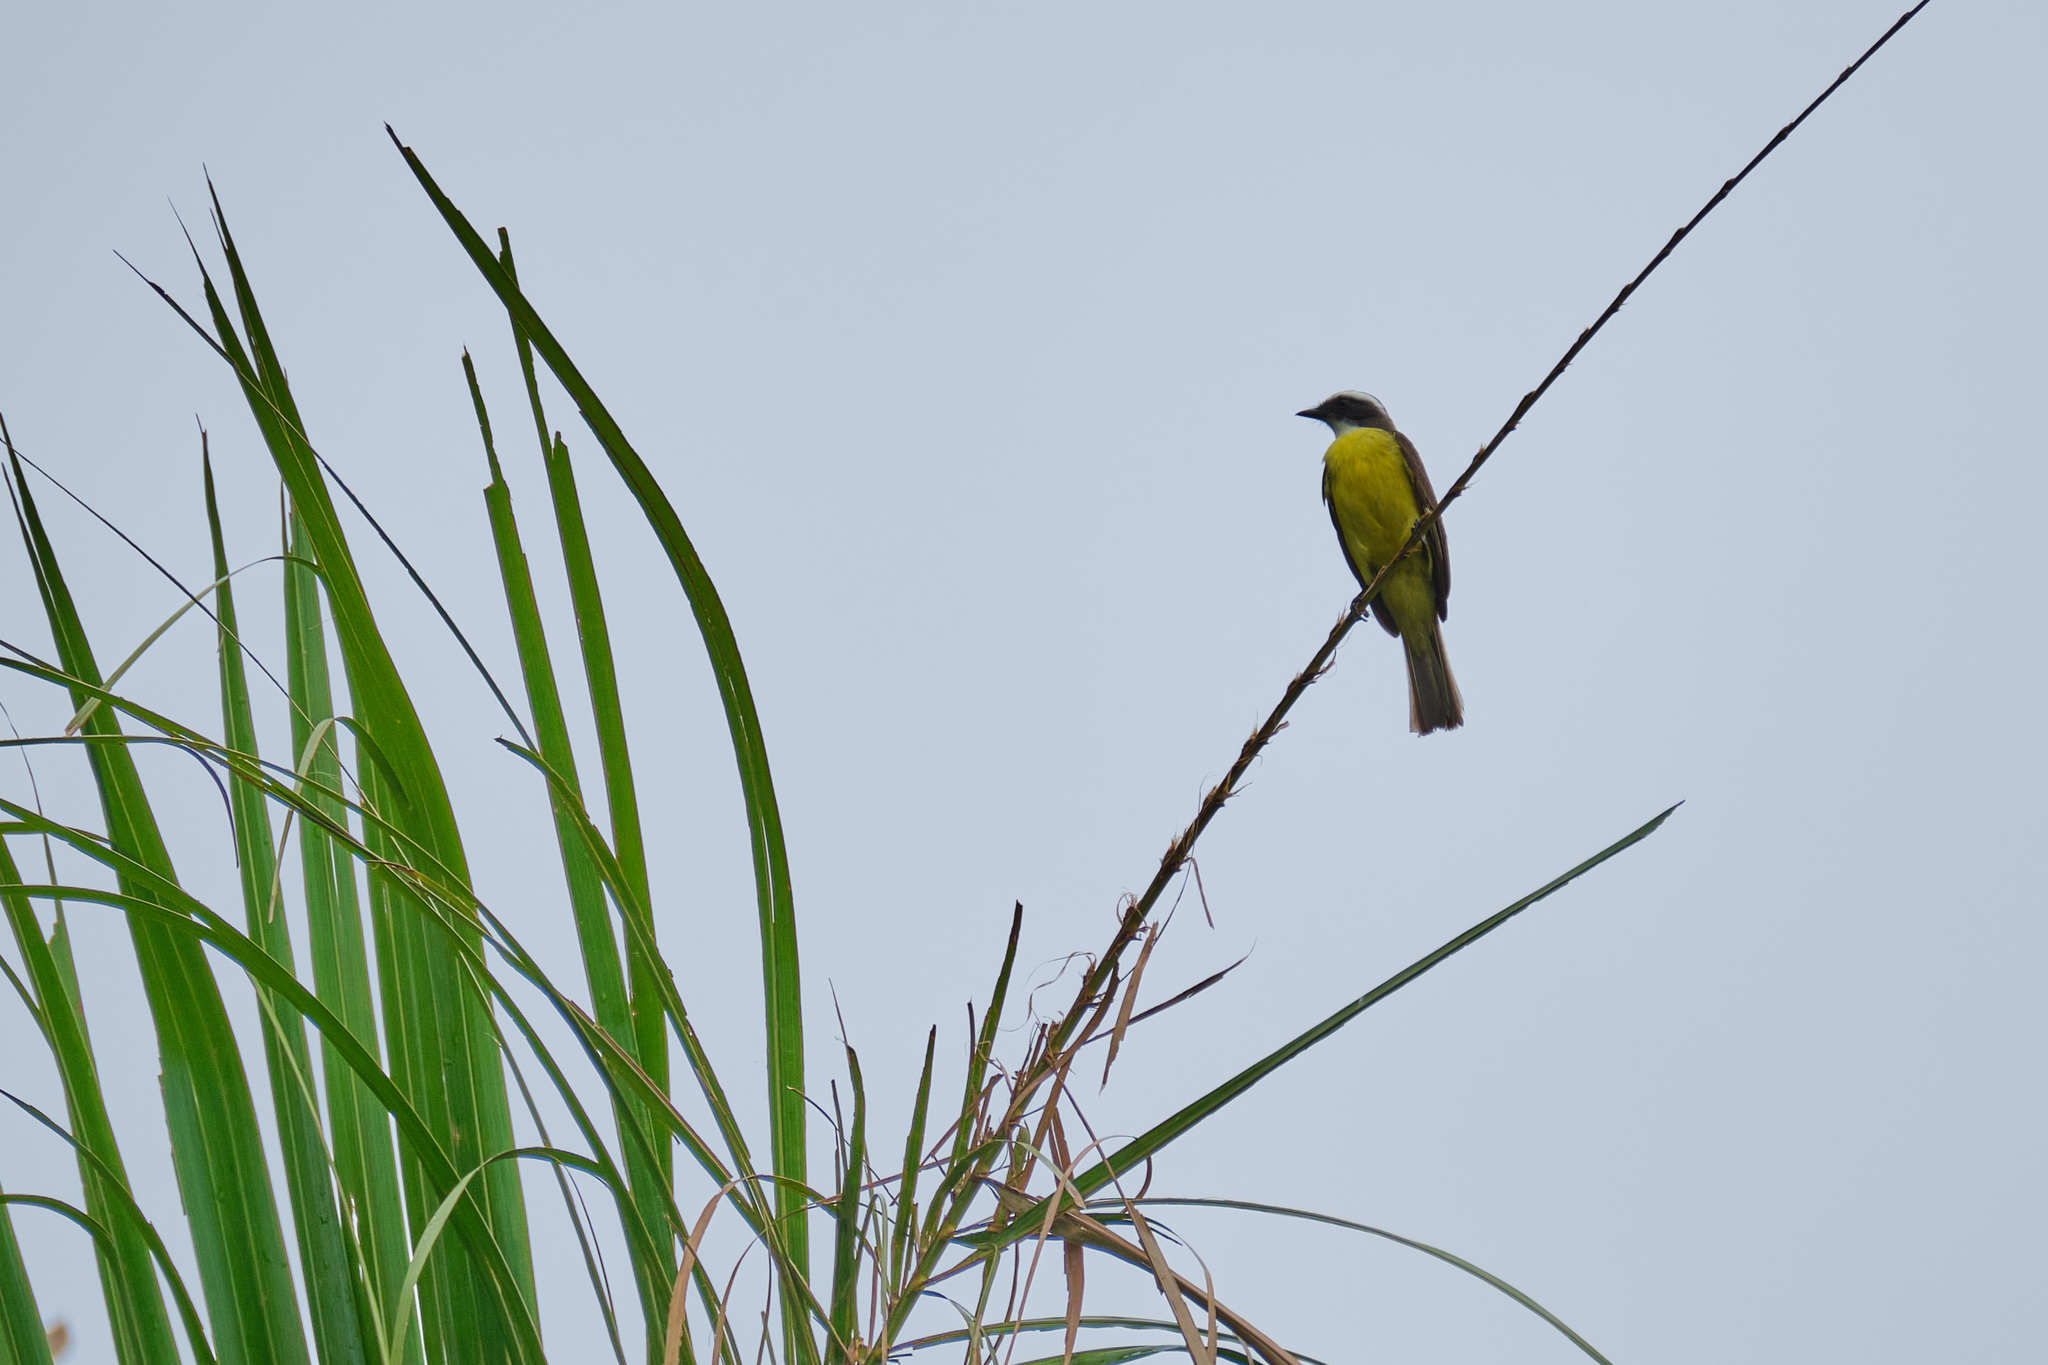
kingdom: Animalia
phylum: Chordata
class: Aves
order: Passeriformes
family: Tyrannidae
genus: Myiozetetes
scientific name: Myiozetetes similis
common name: Social flycatcher
